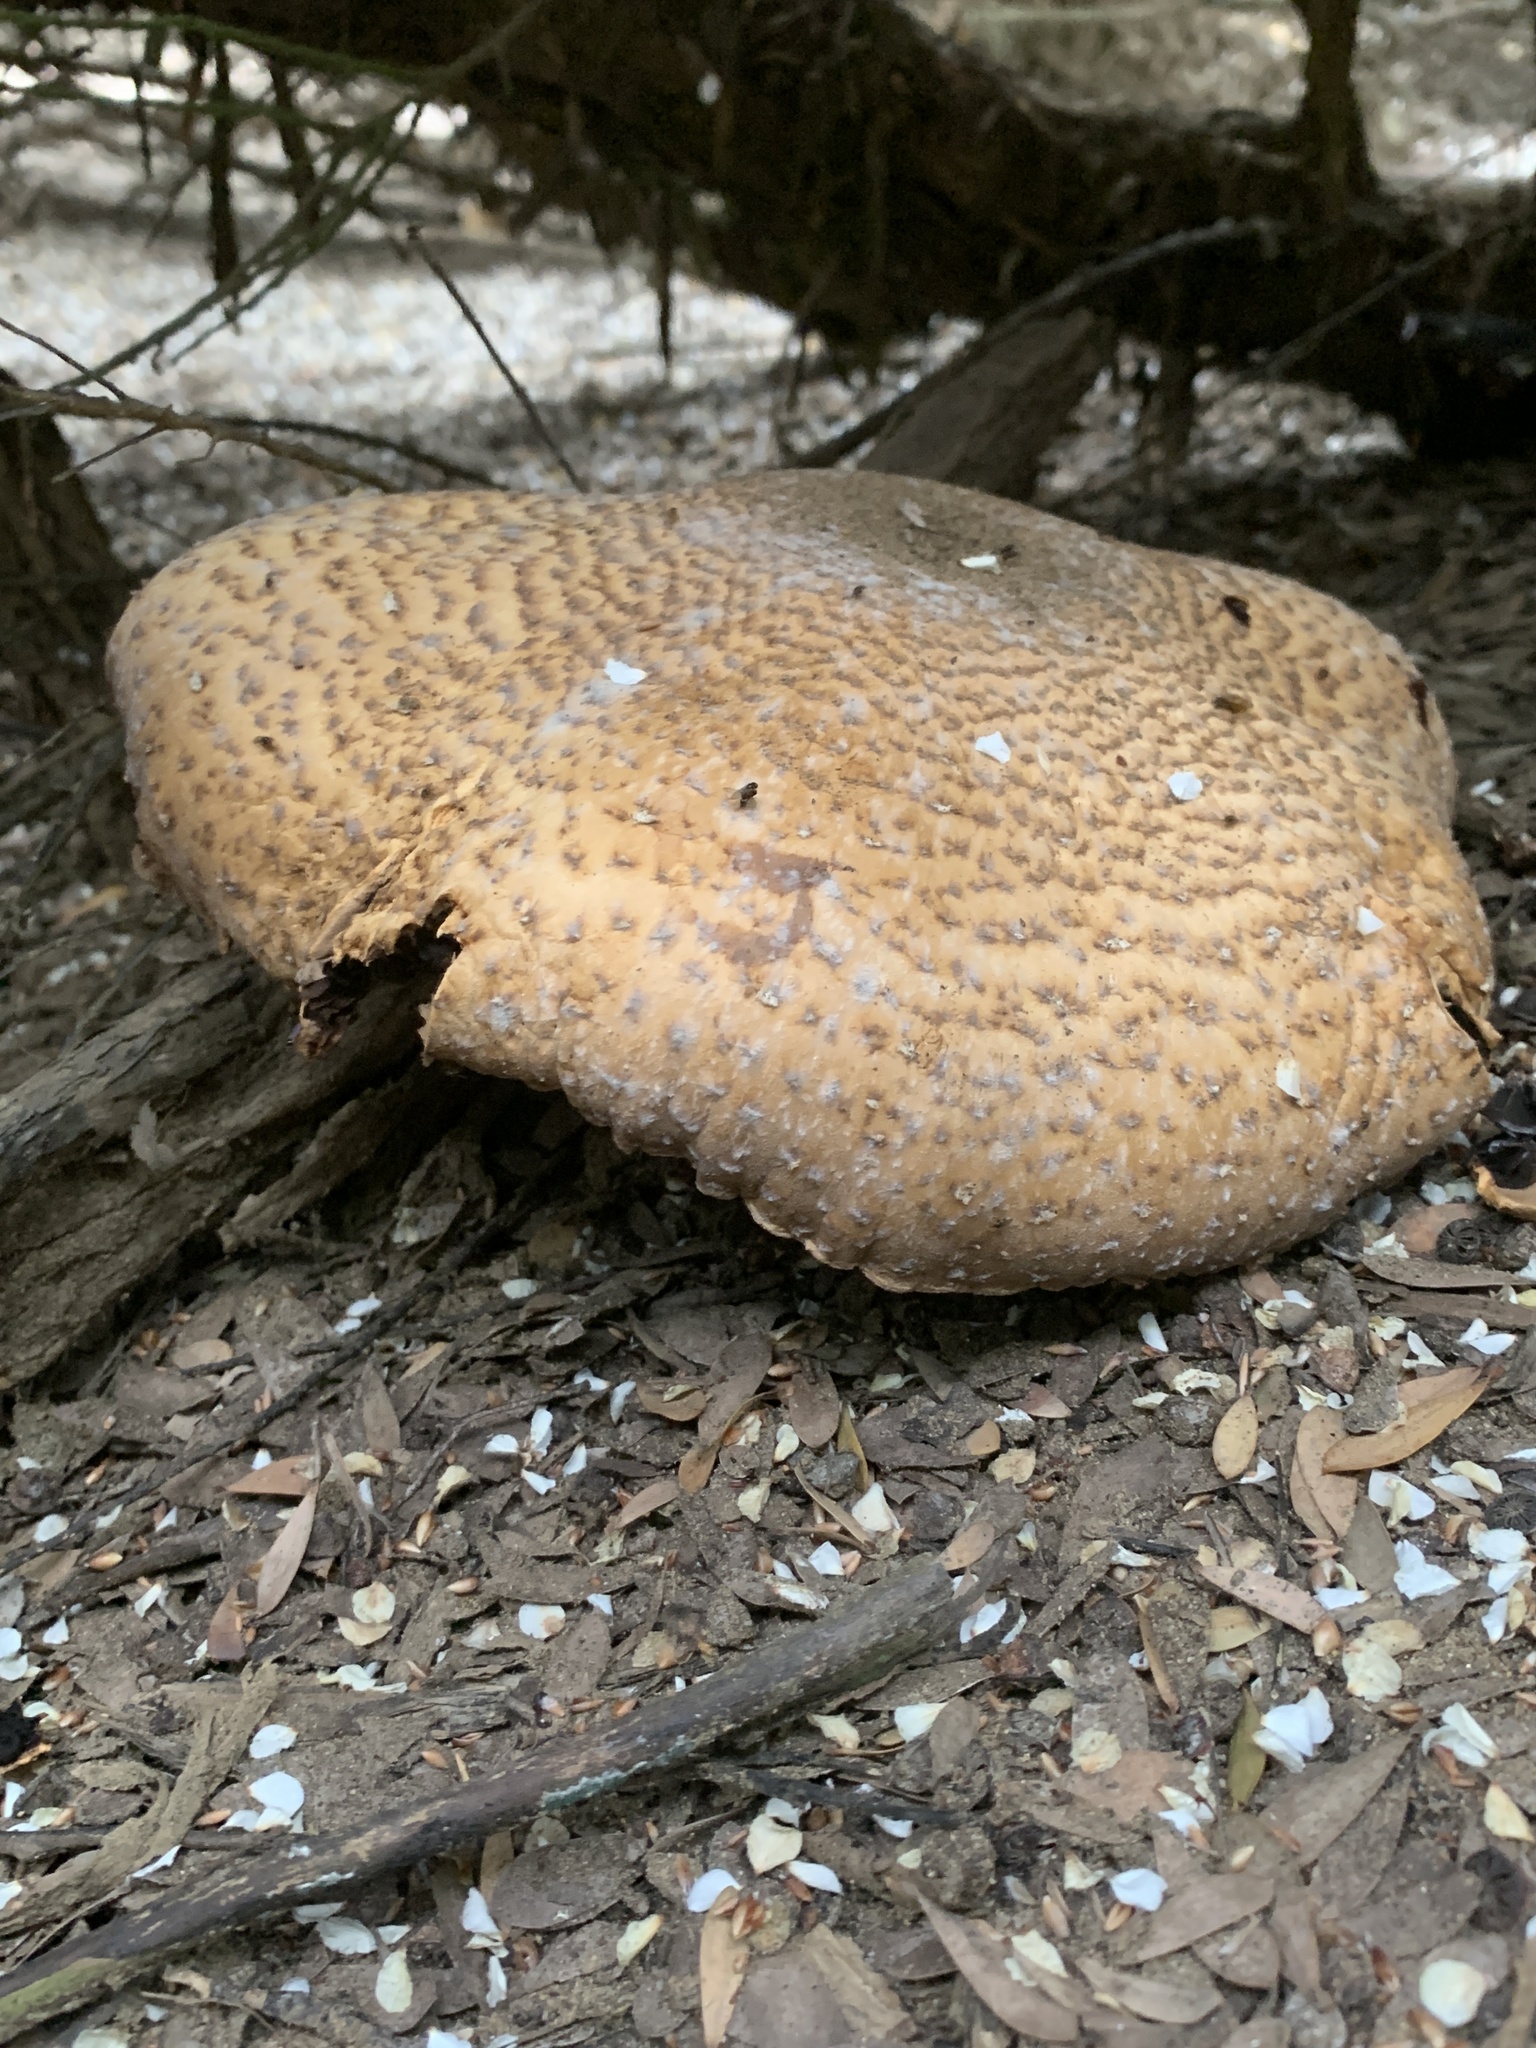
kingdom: Fungi
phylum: Basidiomycota
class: Agaricomycetes
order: Agaricales
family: Agaricaceae
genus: Agaricus
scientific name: Agaricus augustus
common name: Prince
